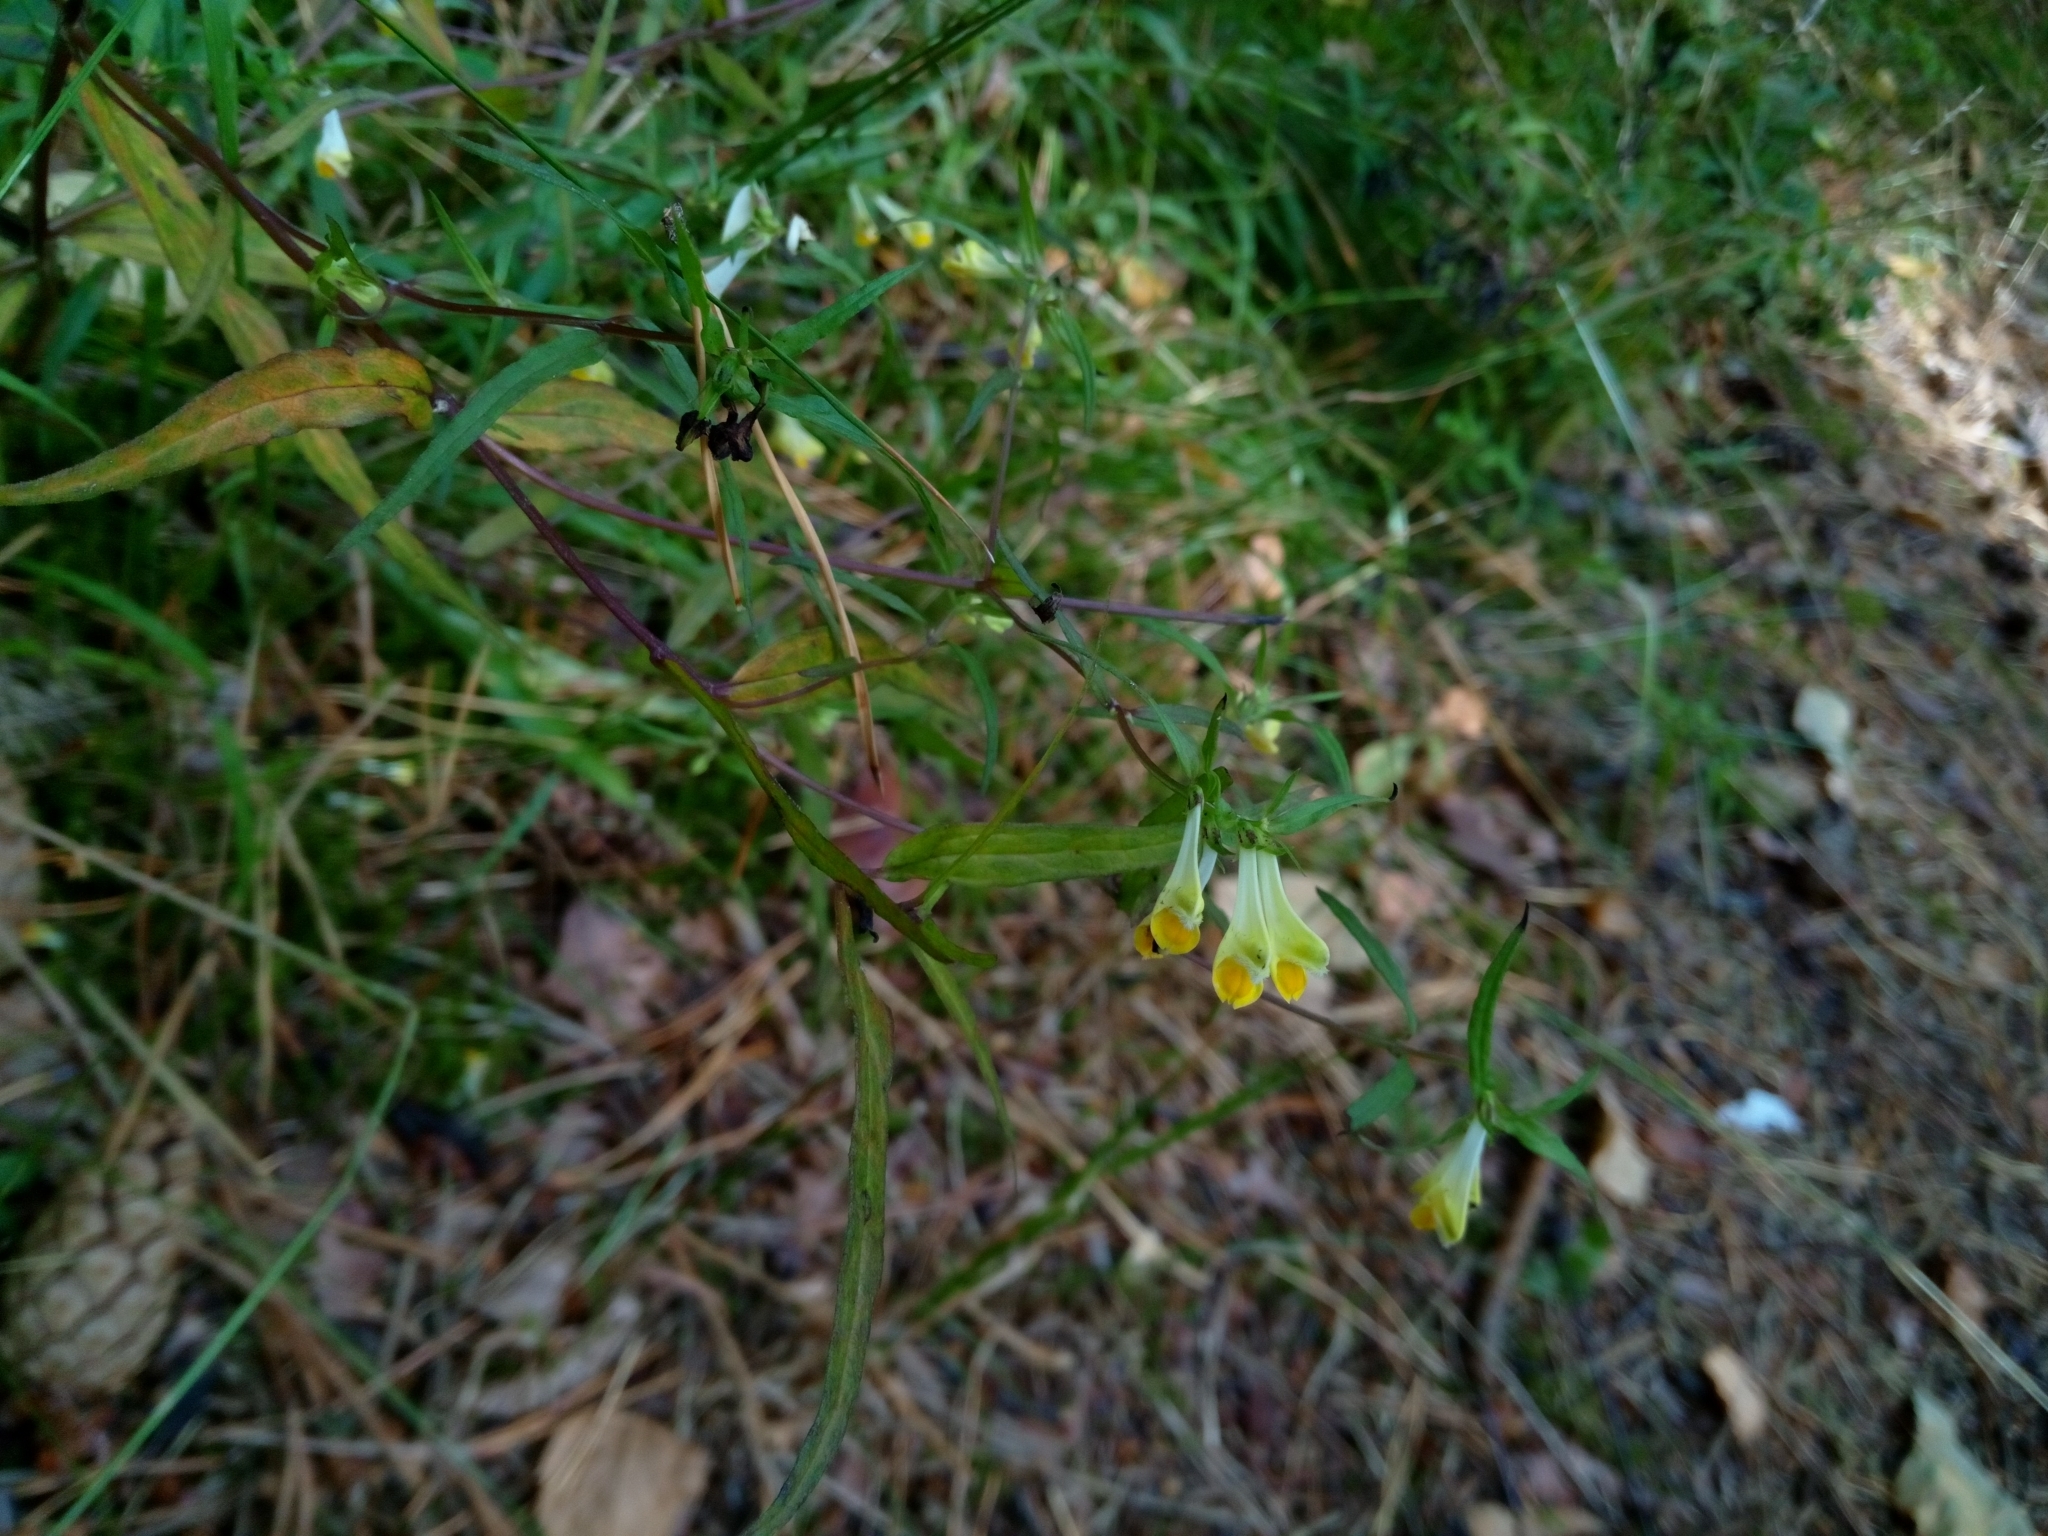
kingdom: Plantae
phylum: Tracheophyta
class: Magnoliopsida
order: Lamiales
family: Orobanchaceae
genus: Melampyrum
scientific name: Melampyrum pratense
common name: Common cow-wheat
